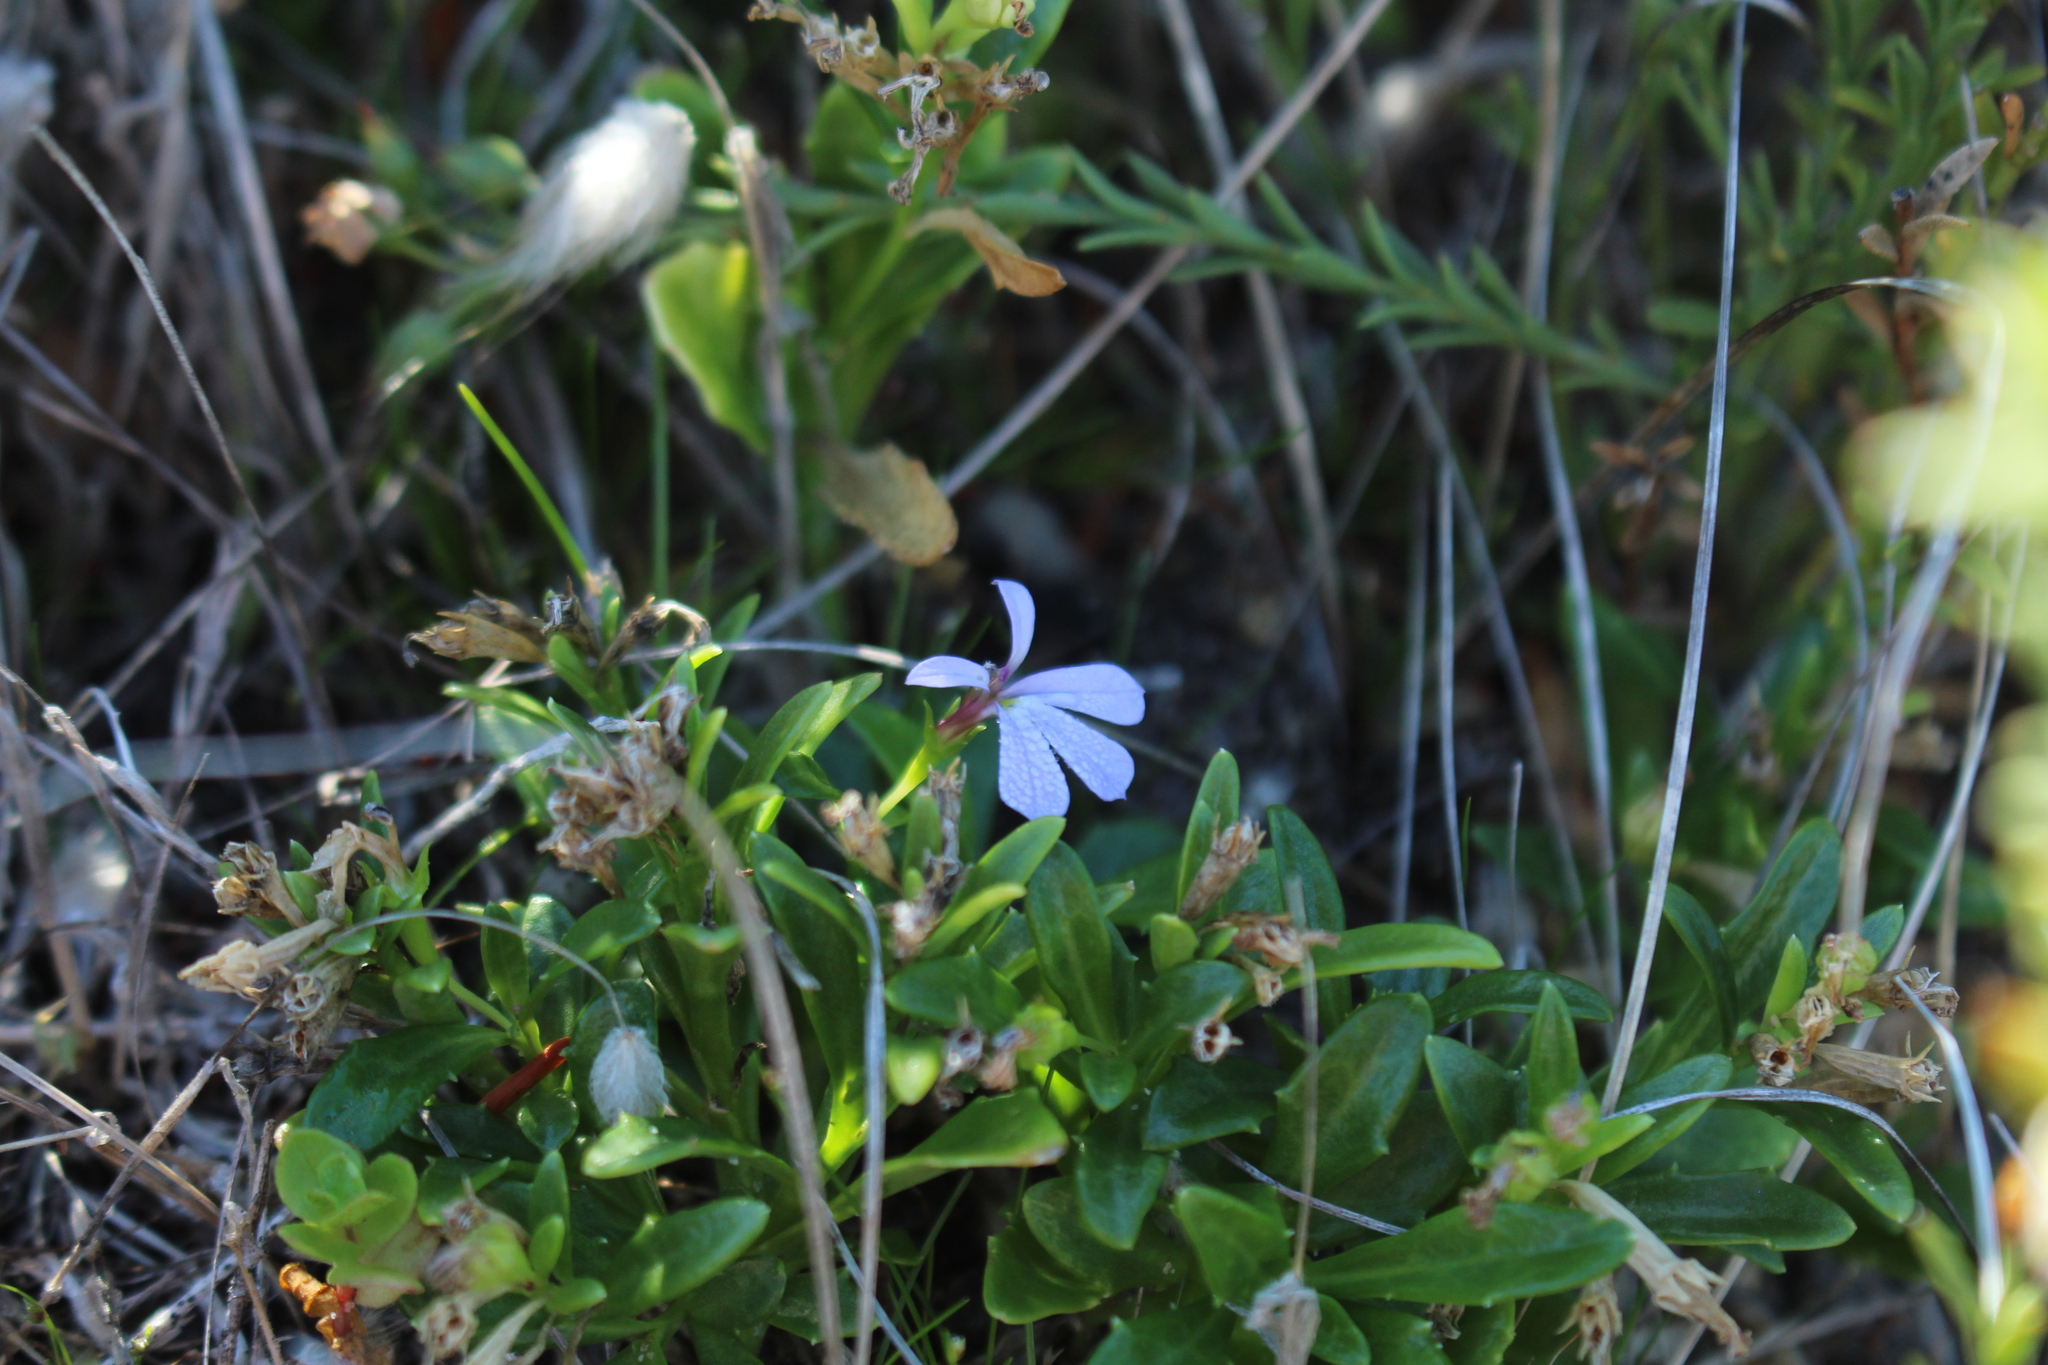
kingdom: Plantae
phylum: Tracheophyta
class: Magnoliopsida
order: Asterales
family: Campanulaceae
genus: Lobelia
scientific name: Lobelia anceps
